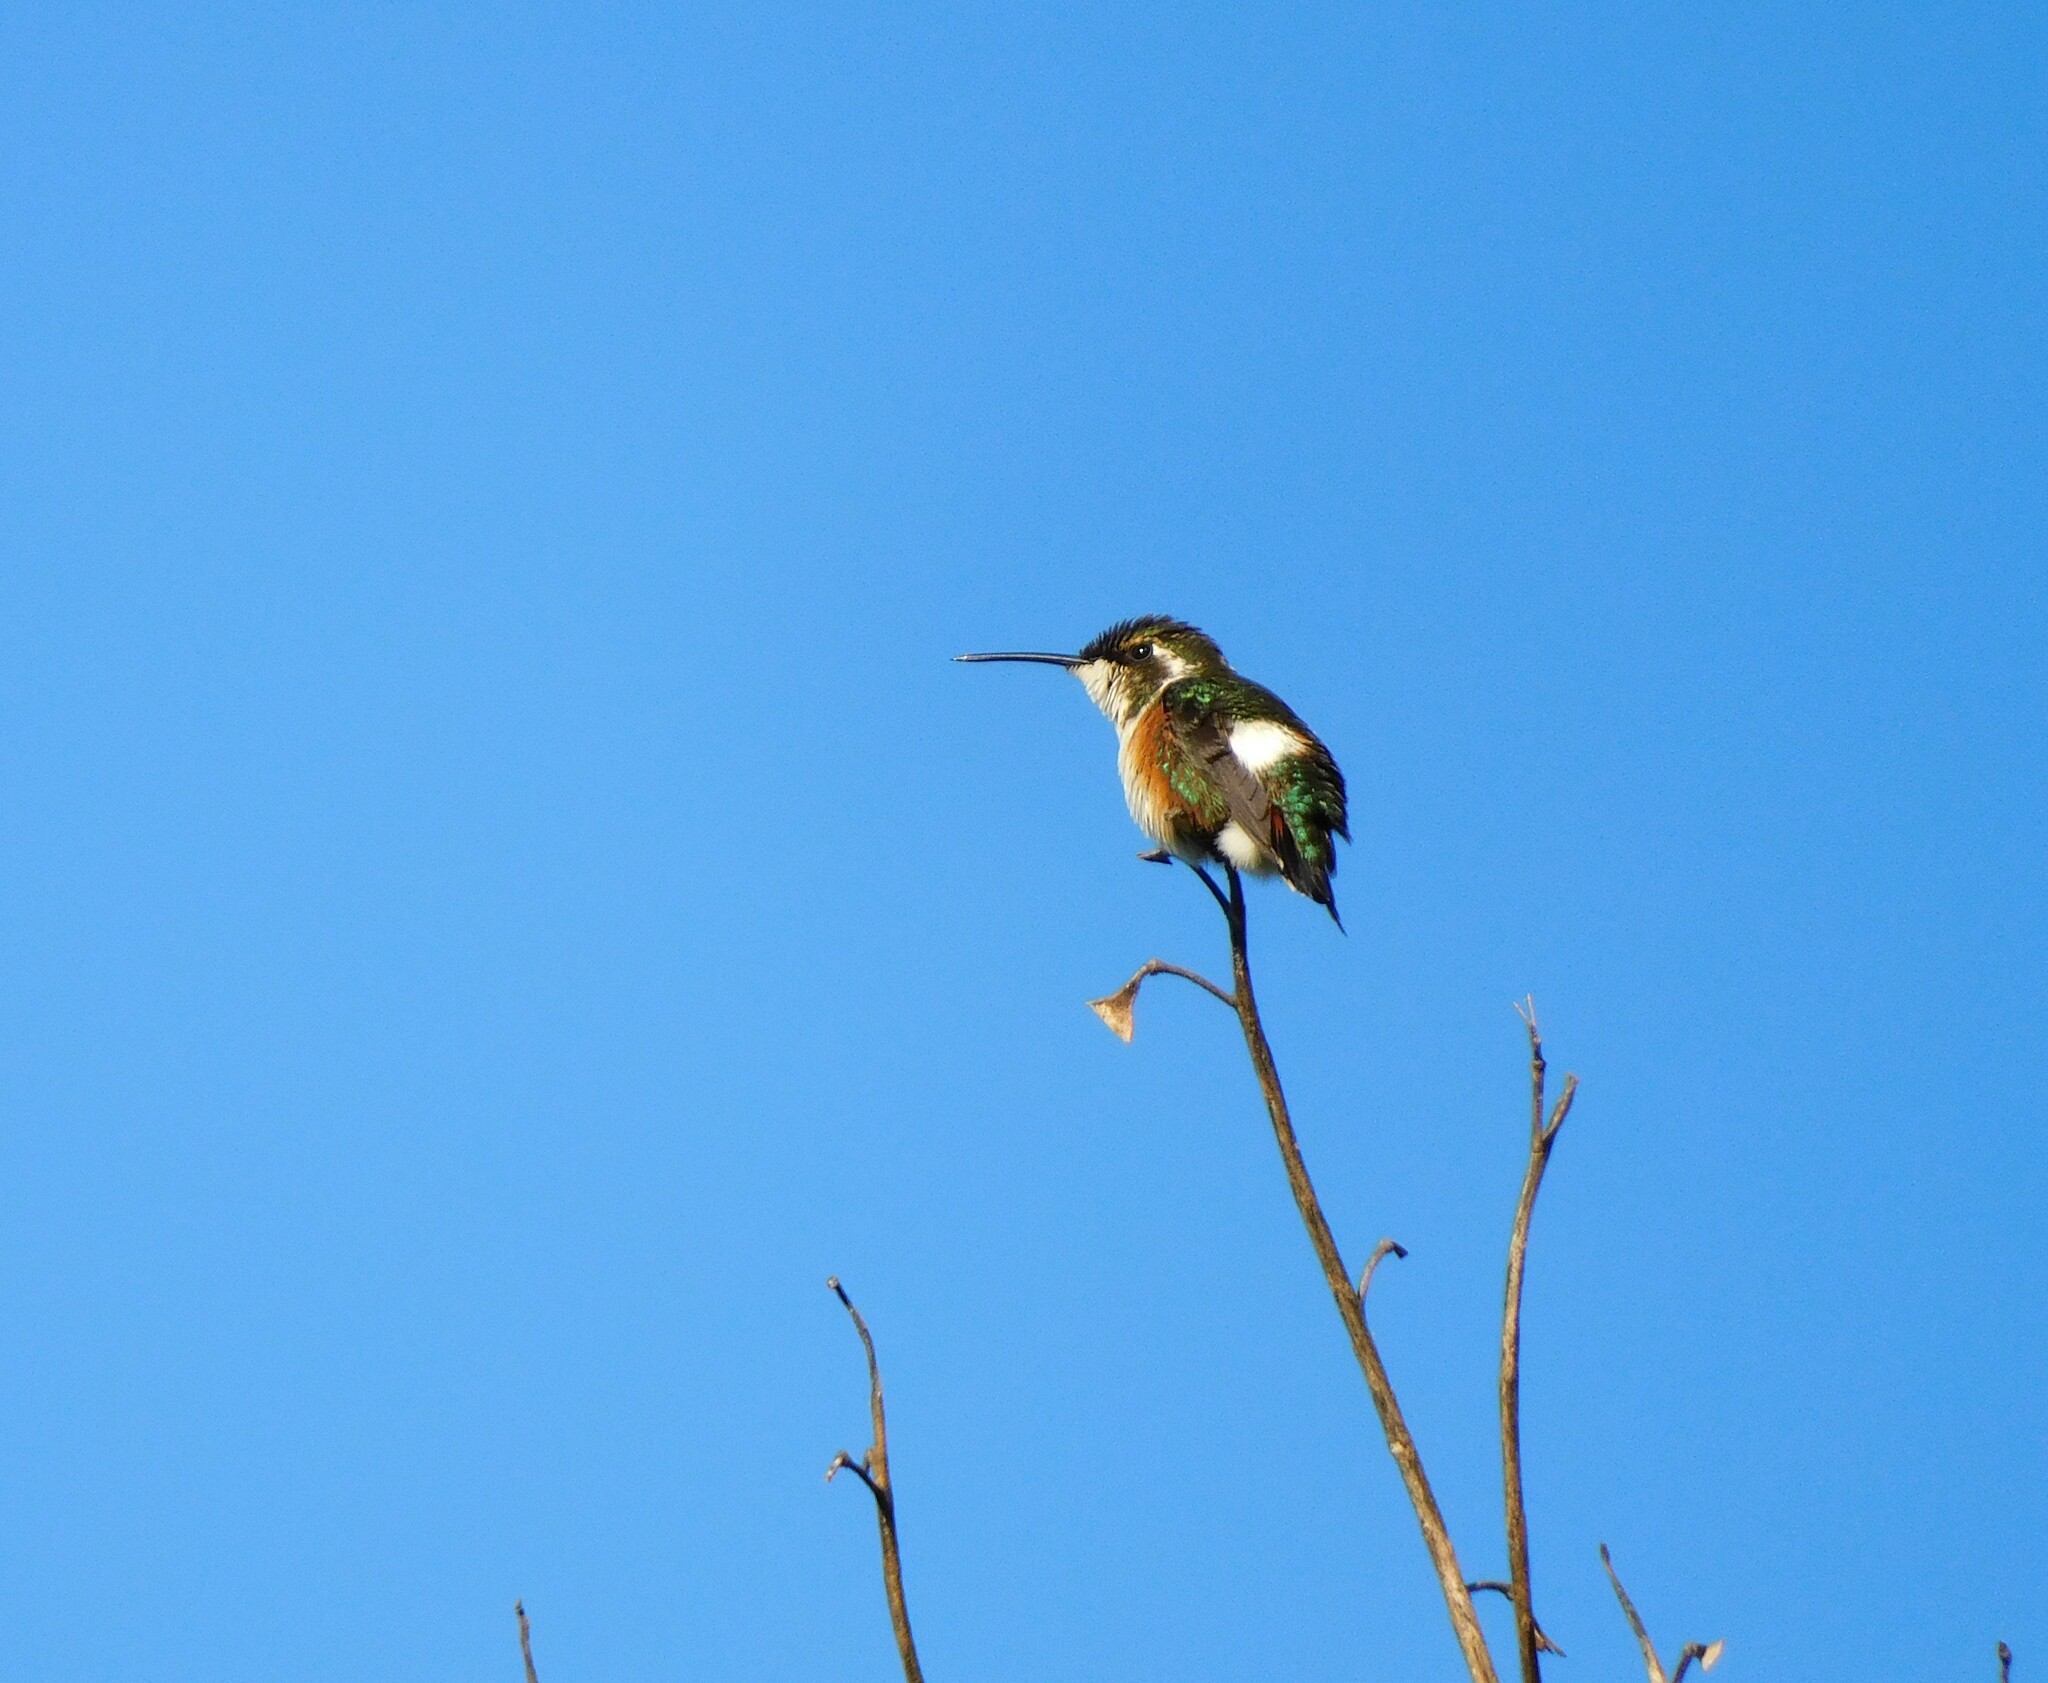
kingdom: Animalia
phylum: Chordata
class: Aves
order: Apodiformes
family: Trochilidae
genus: Chaetocercus
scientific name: Chaetocercus mulsant
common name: White-bellied woodstar
